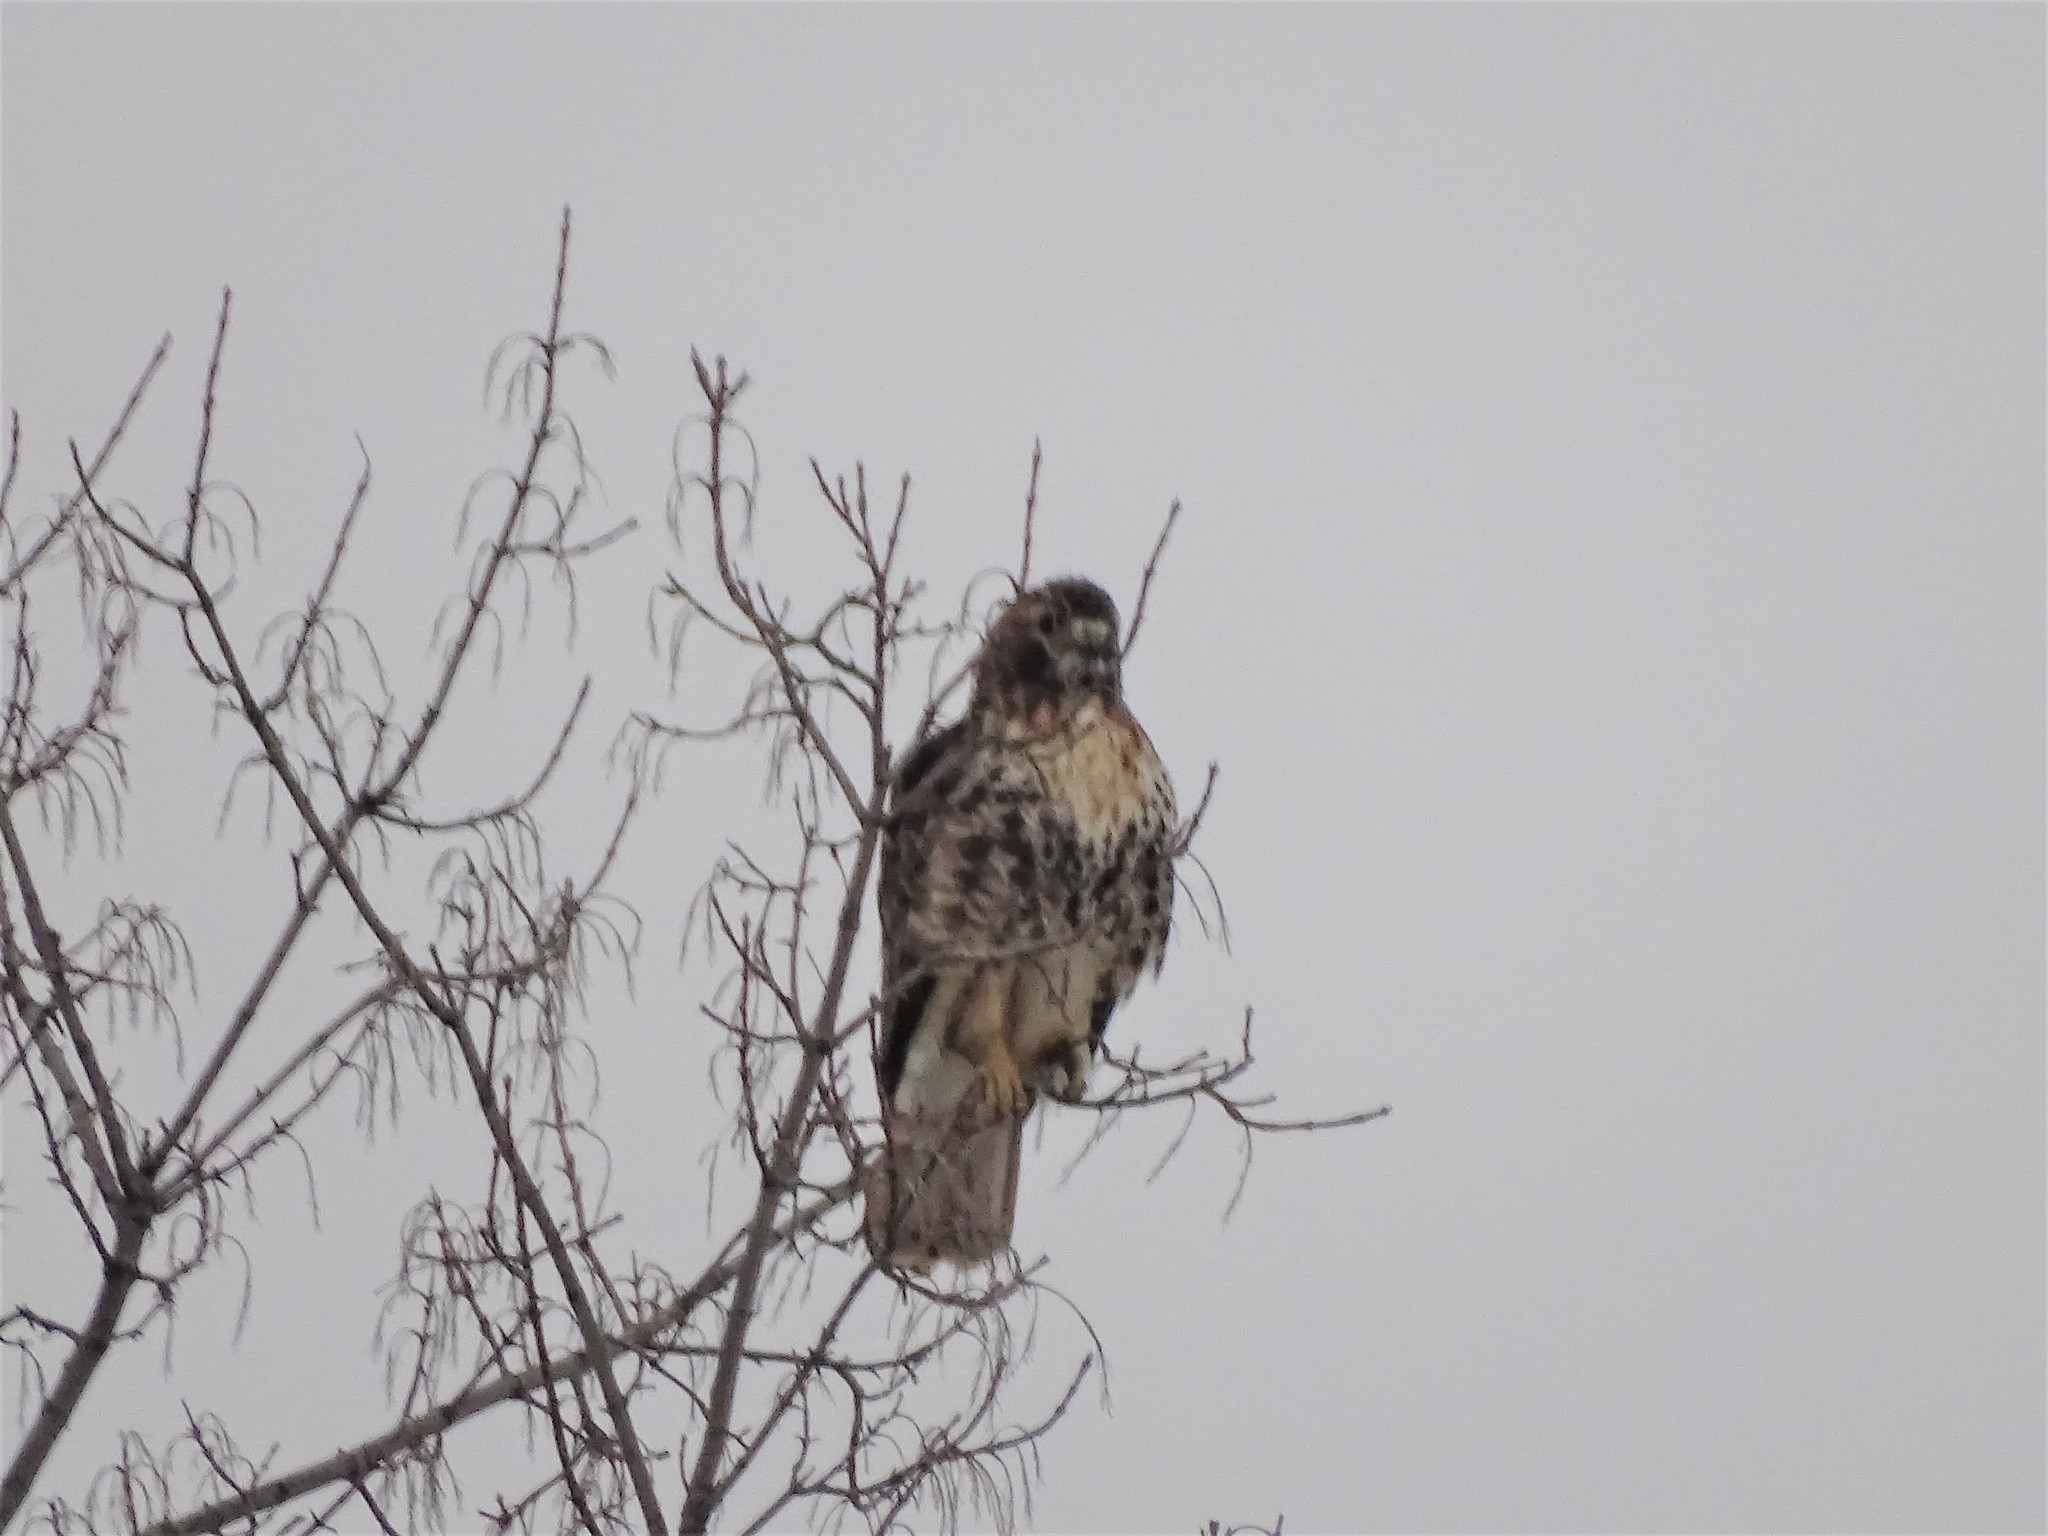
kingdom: Animalia
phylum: Chordata
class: Aves
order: Accipitriformes
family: Accipitridae
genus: Buteo
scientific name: Buteo jamaicensis
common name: Red-tailed hawk
